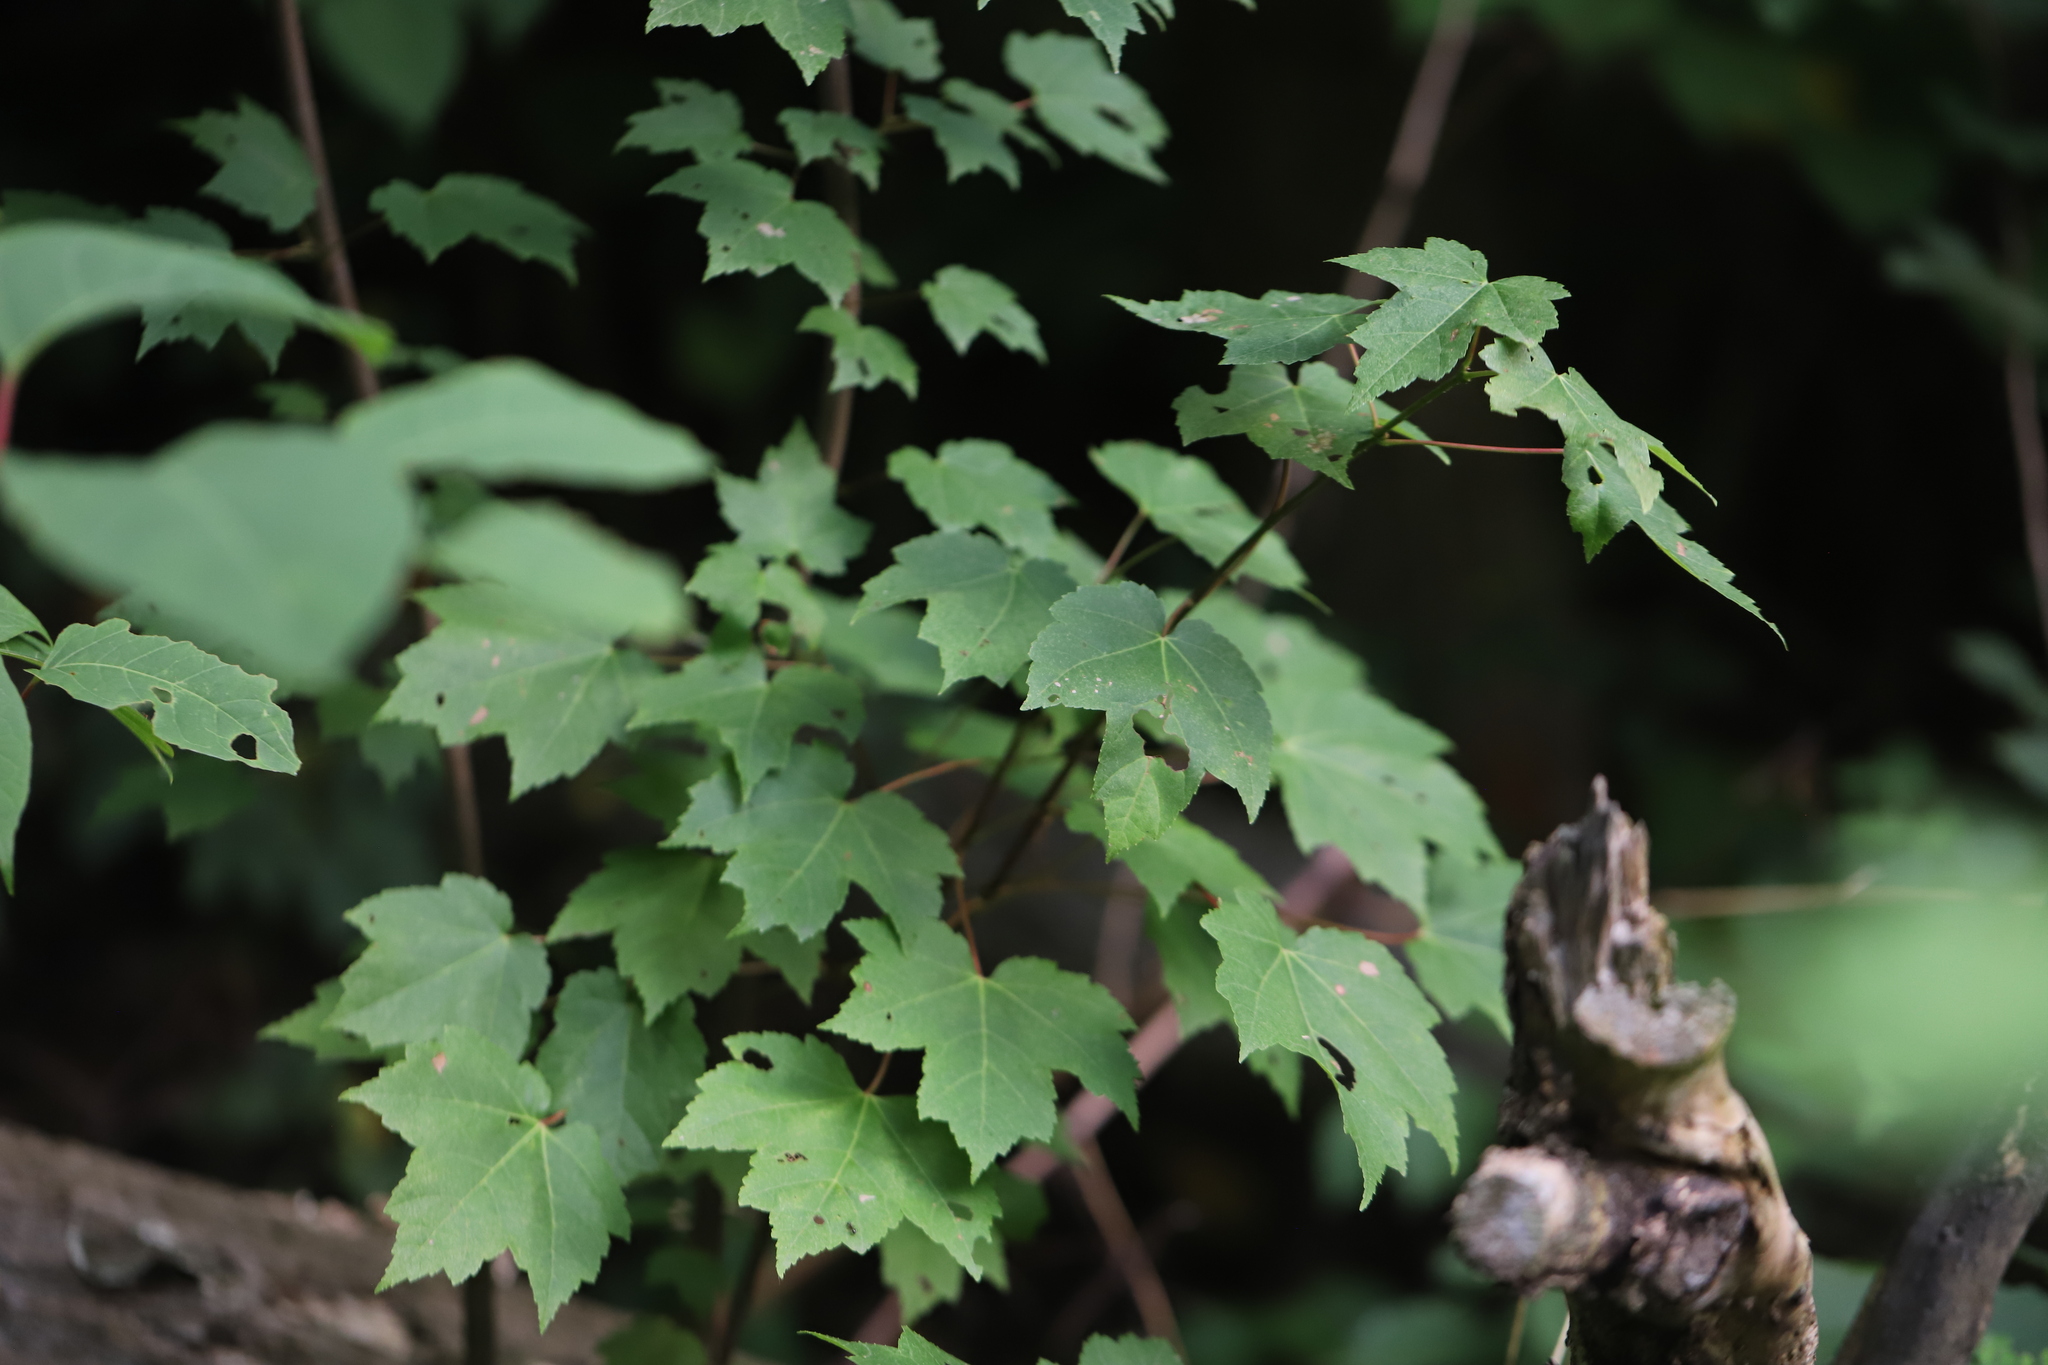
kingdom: Plantae
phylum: Tracheophyta
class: Magnoliopsida
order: Sapindales
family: Sapindaceae
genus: Acer
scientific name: Acer rubrum
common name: Red maple
